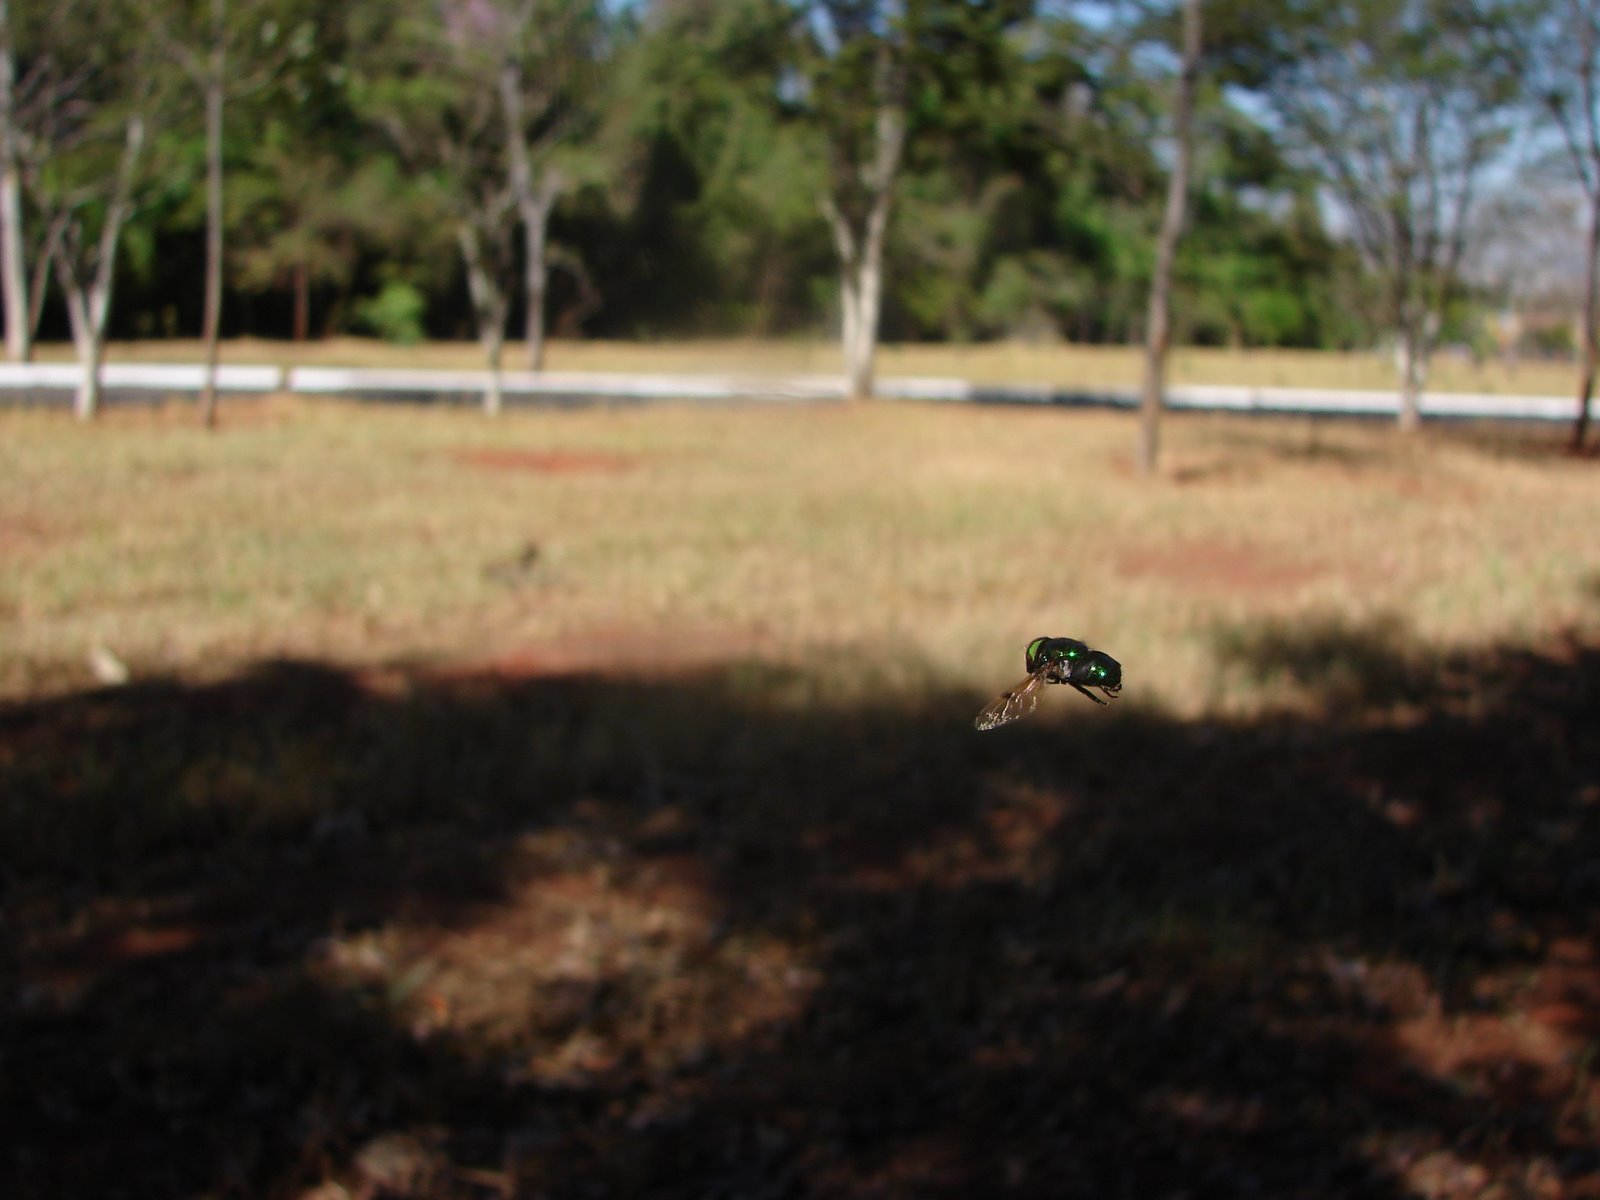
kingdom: Animalia
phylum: Arthropoda
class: Insecta
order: Diptera
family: Syrphidae
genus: Ornidia
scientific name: Ornidia obesa
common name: Syrphid fly
